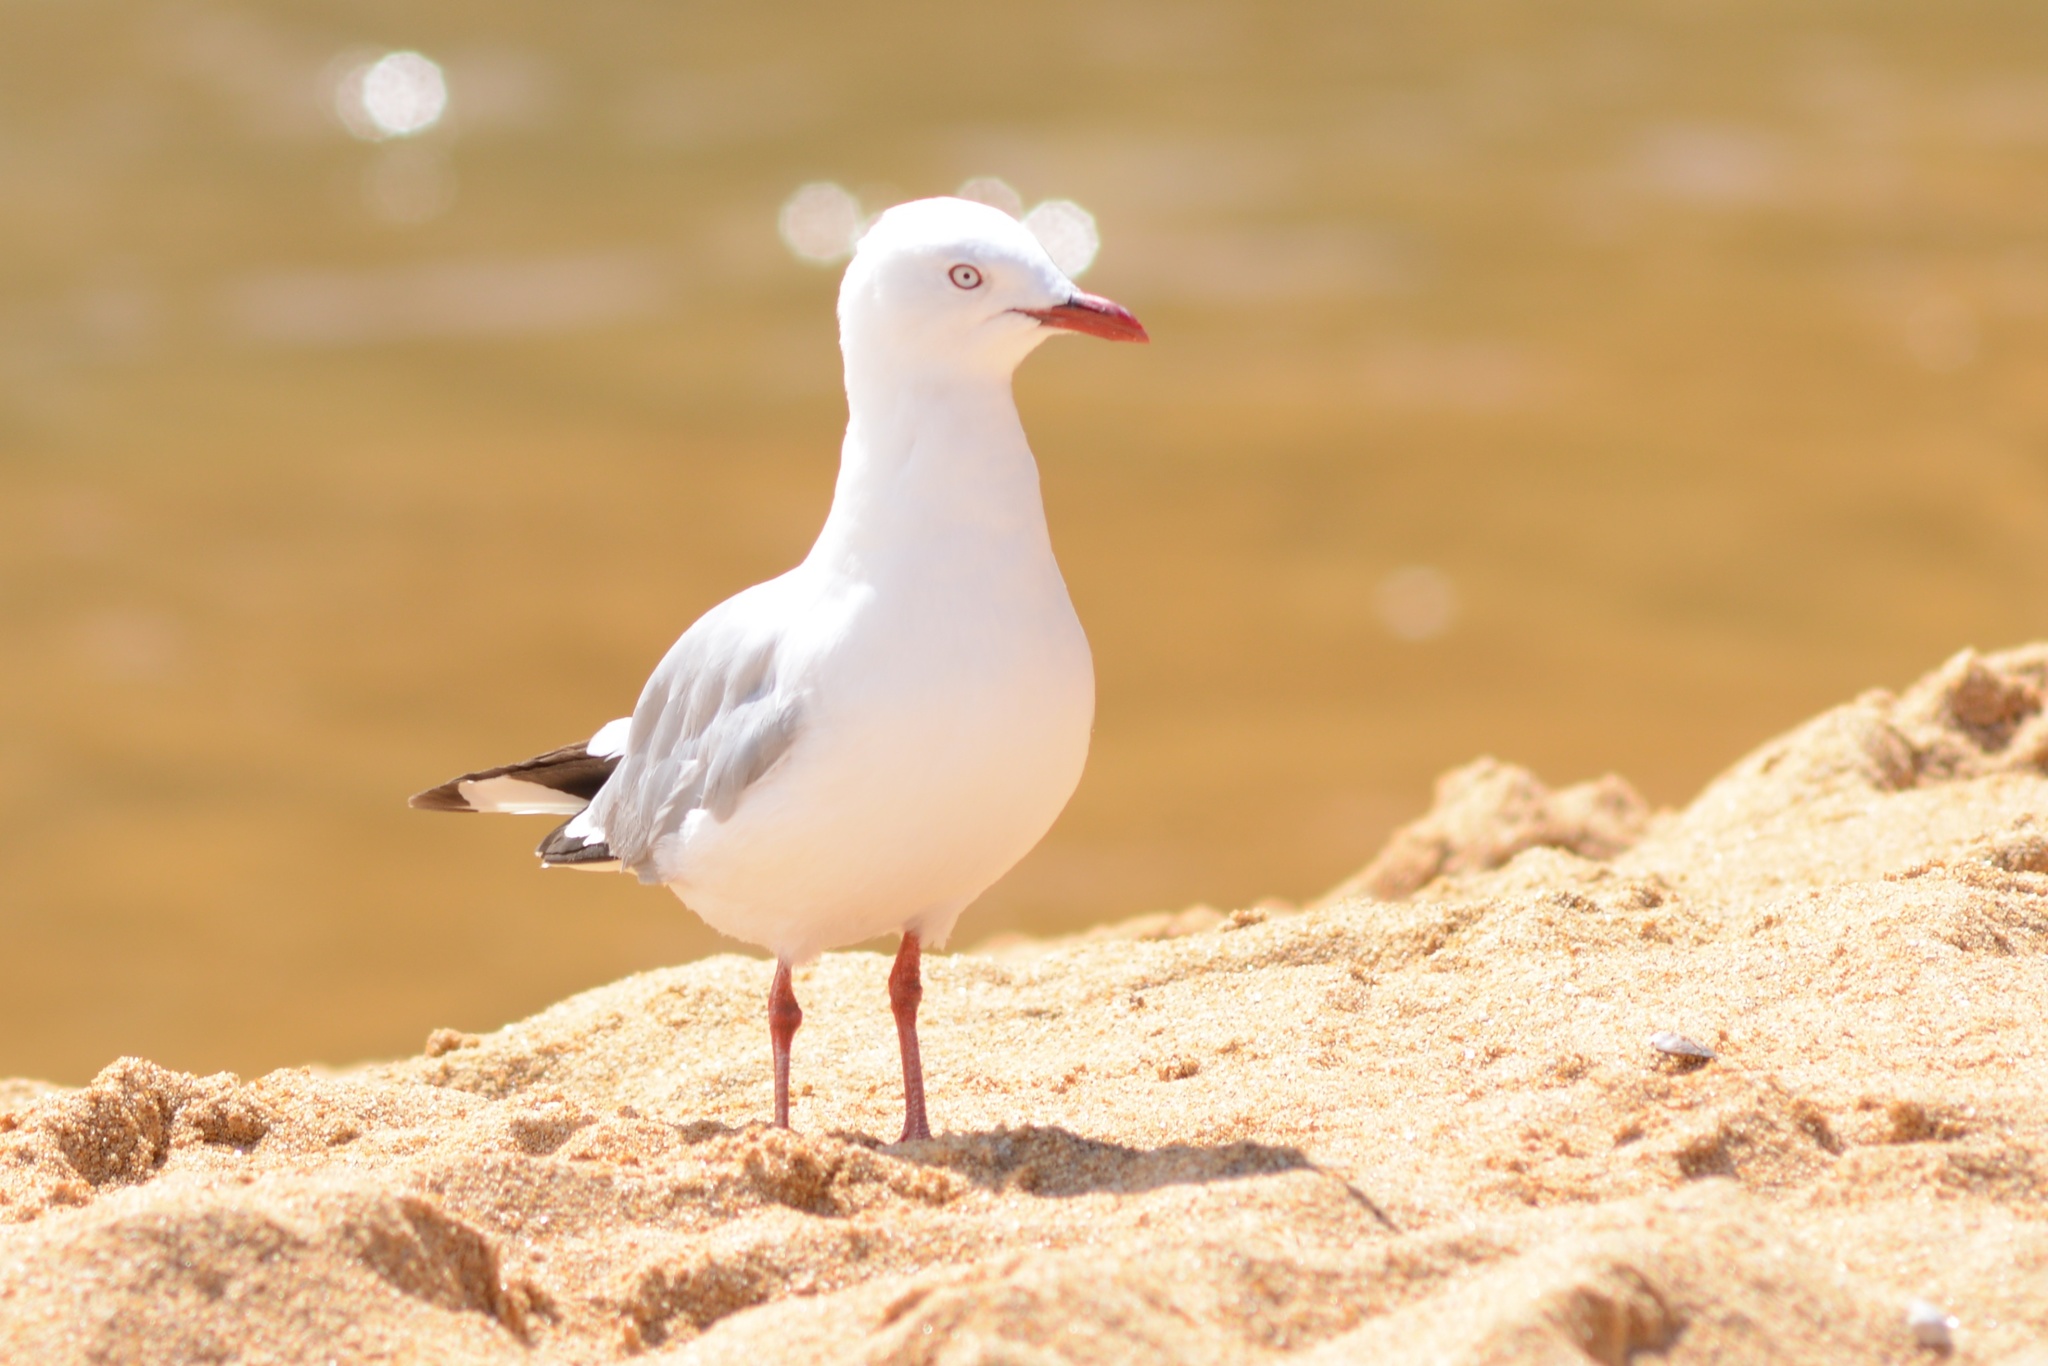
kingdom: Animalia
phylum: Chordata
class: Aves
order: Charadriiformes
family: Laridae
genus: Chroicocephalus
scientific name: Chroicocephalus novaehollandiae
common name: Silver gull
